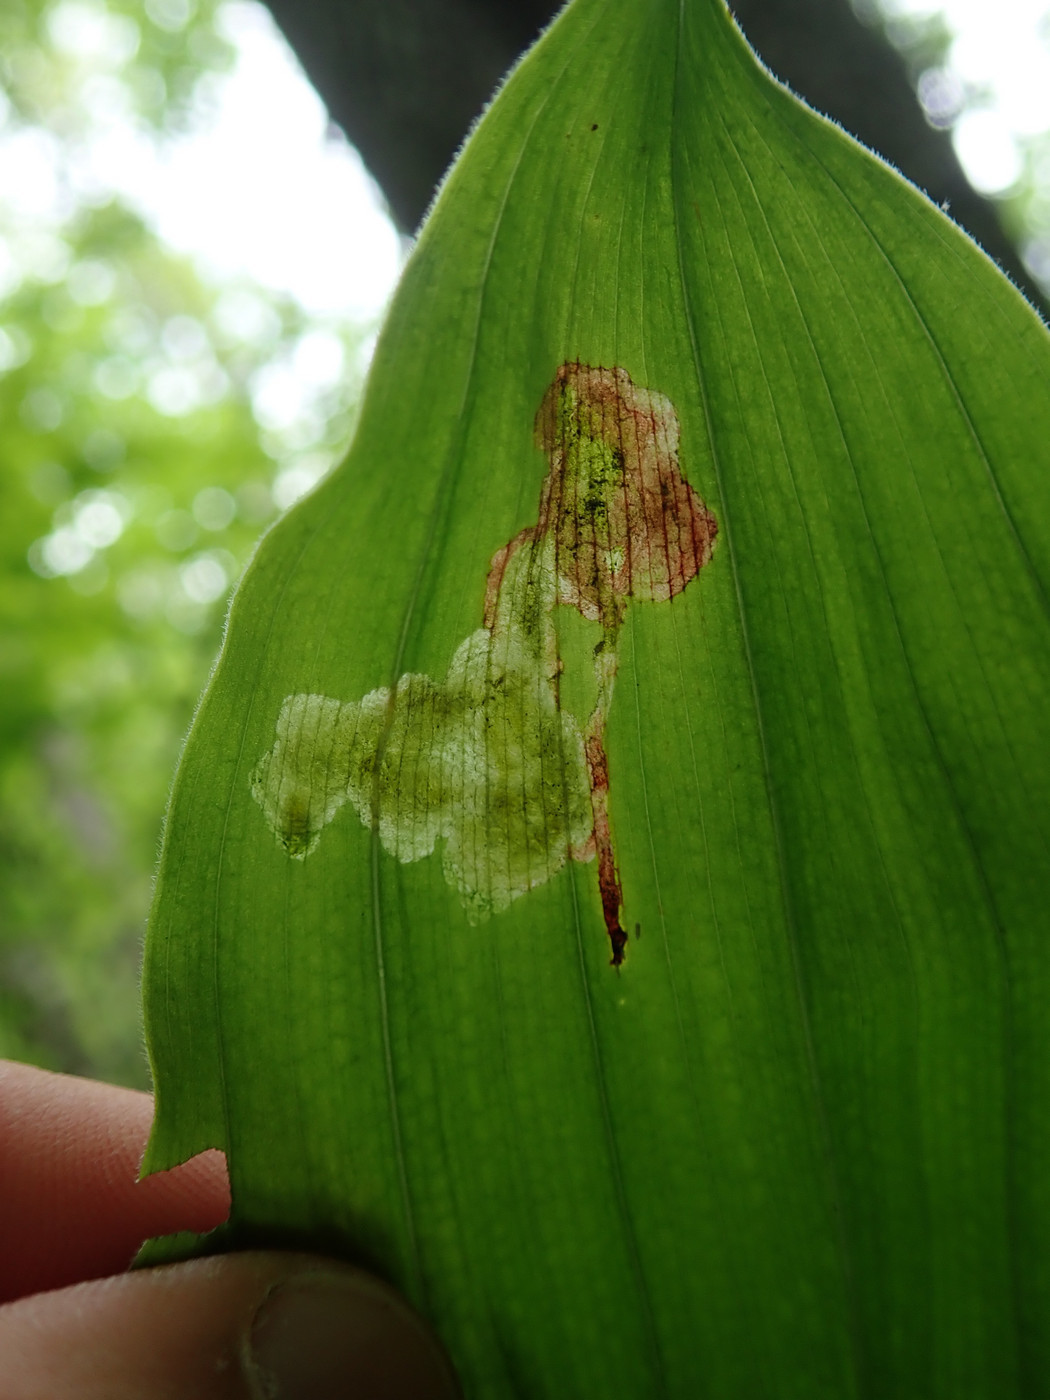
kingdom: Animalia
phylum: Arthropoda
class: Insecta
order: Diptera
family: Scathophagidae
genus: Synchysa
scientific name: Synchysa tricincta
